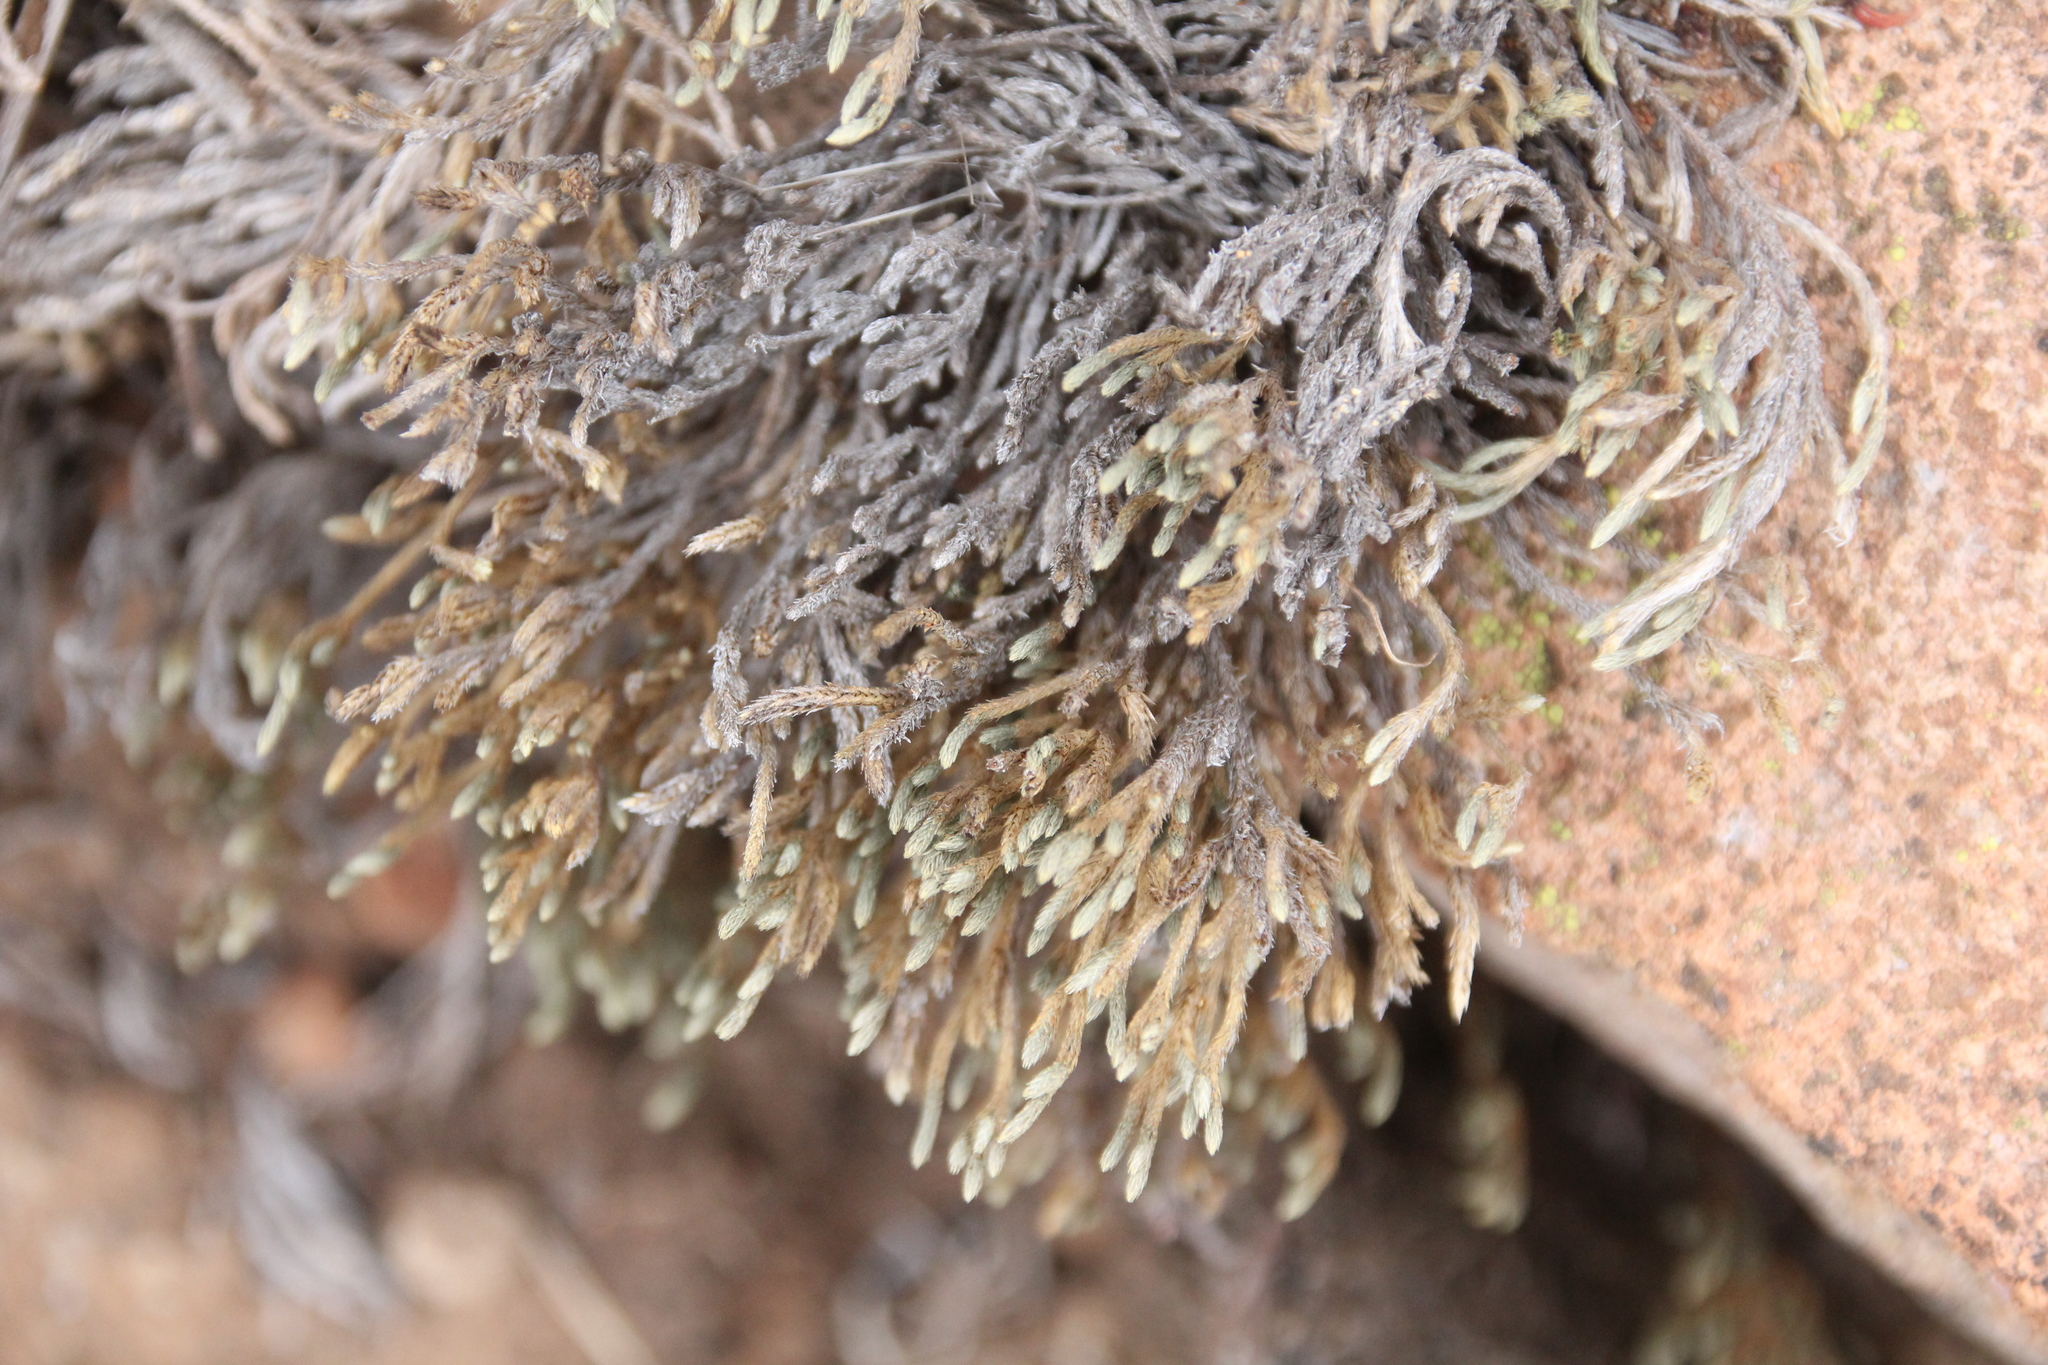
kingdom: Plantae
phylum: Tracheophyta
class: Lycopodiopsida
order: Selaginellales
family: Selaginellaceae
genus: Selaginella
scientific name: Selaginella bigelovii
